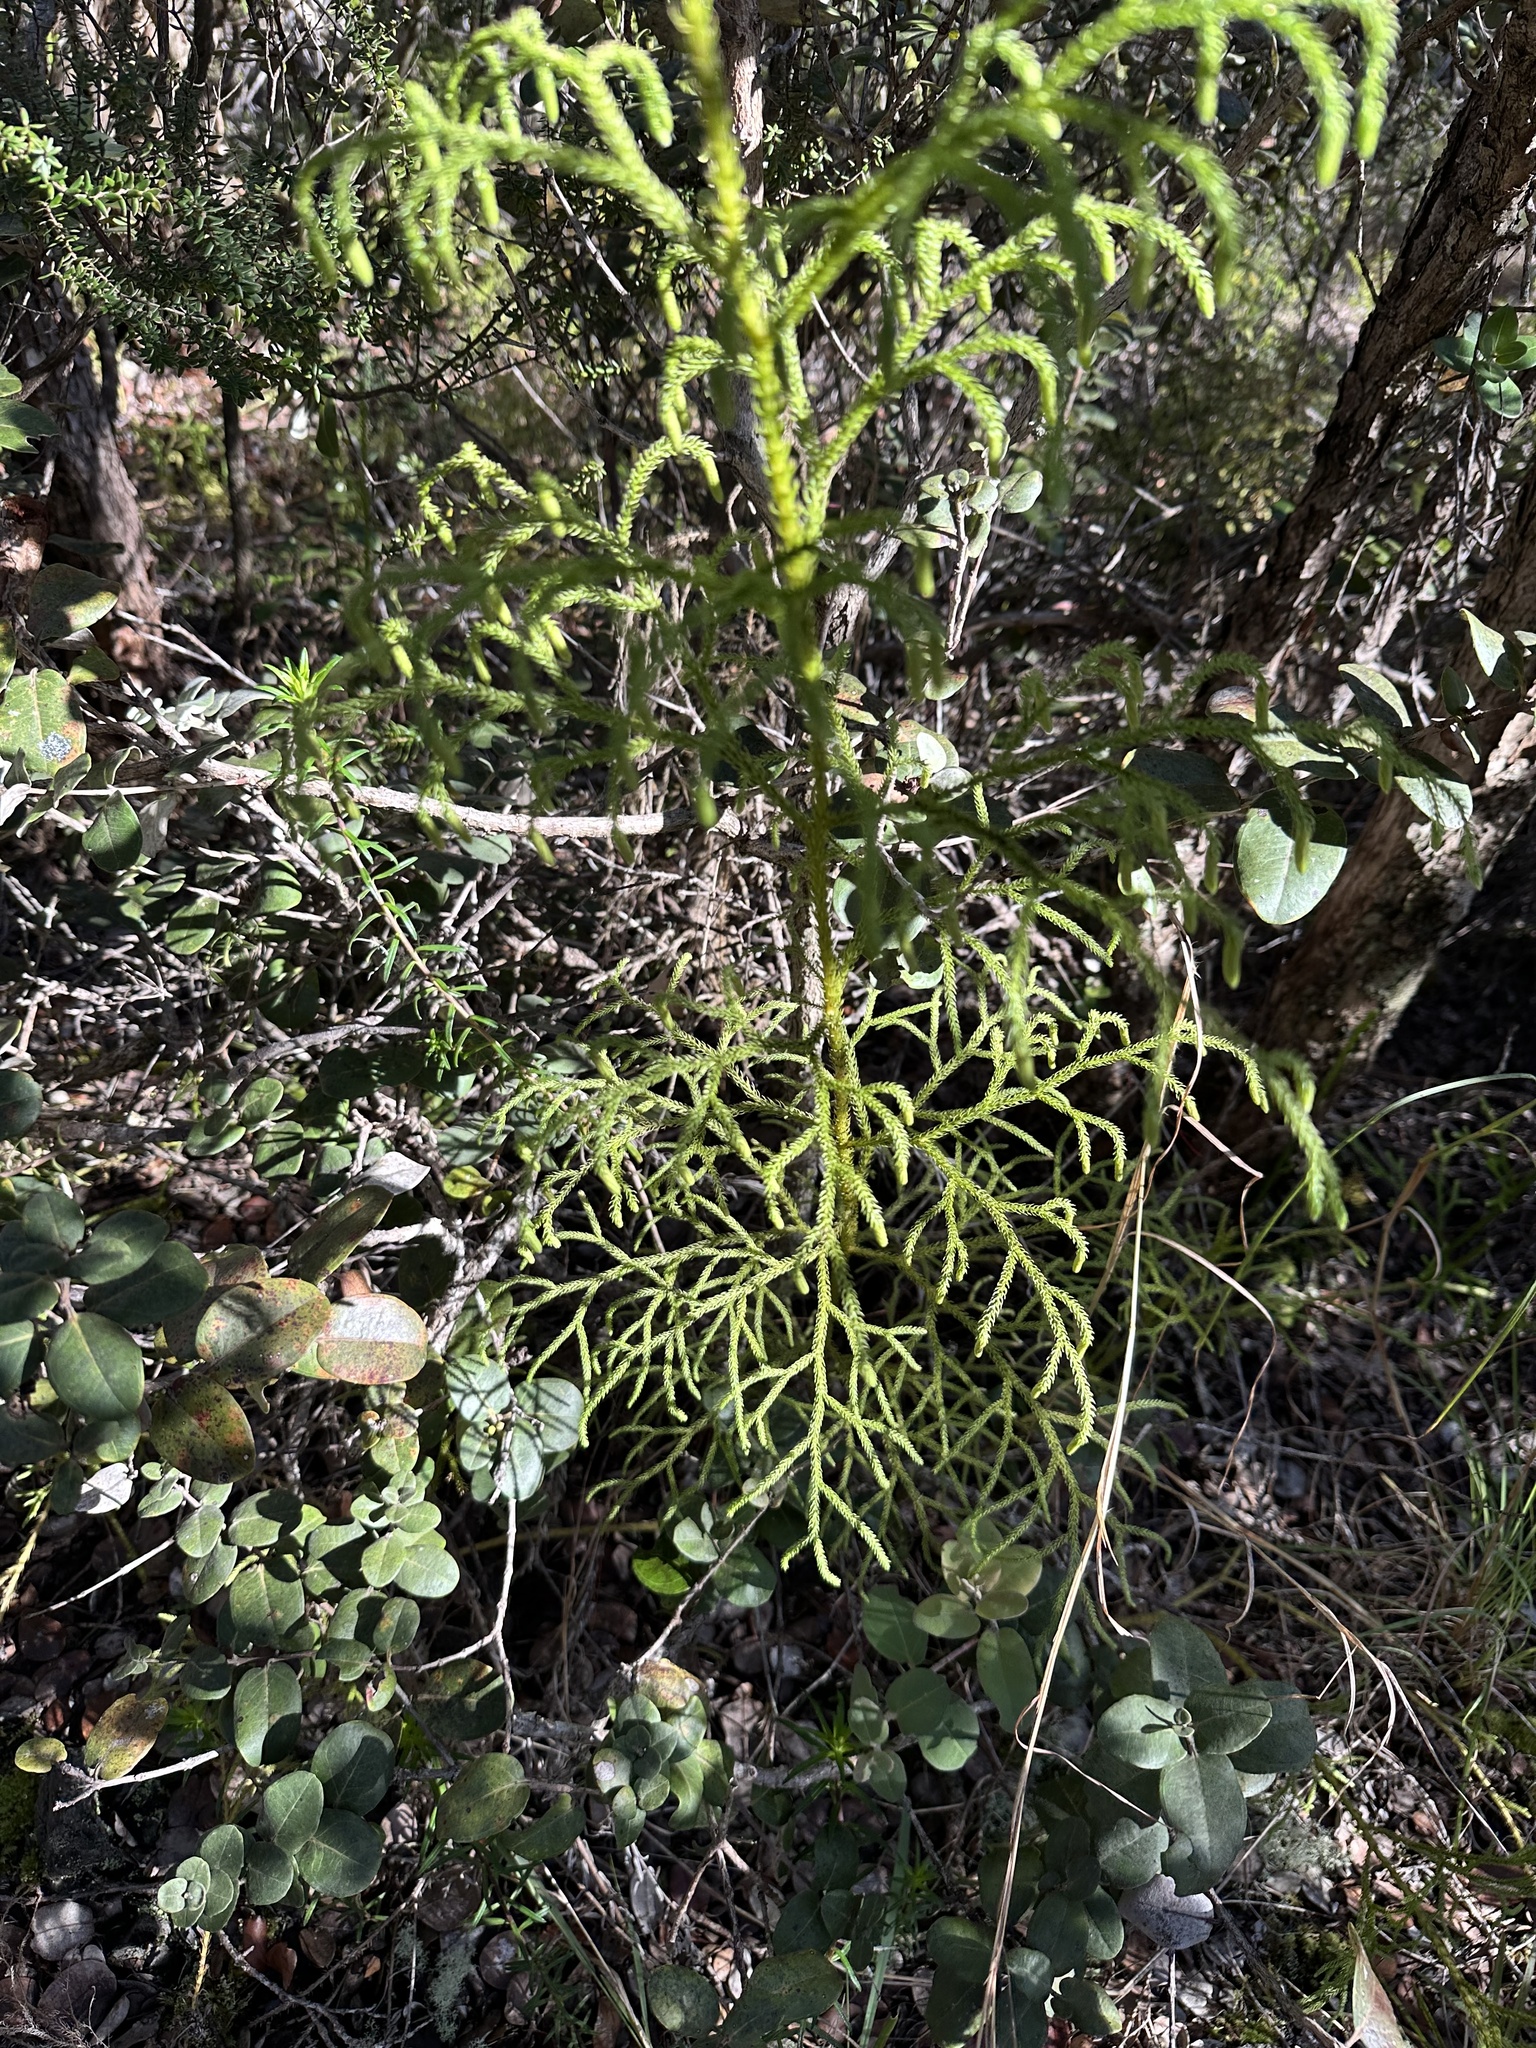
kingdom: Plantae
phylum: Tracheophyta
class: Lycopodiopsida
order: Lycopodiales
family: Lycopodiaceae
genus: Palhinhaea
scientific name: Palhinhaea cernua
